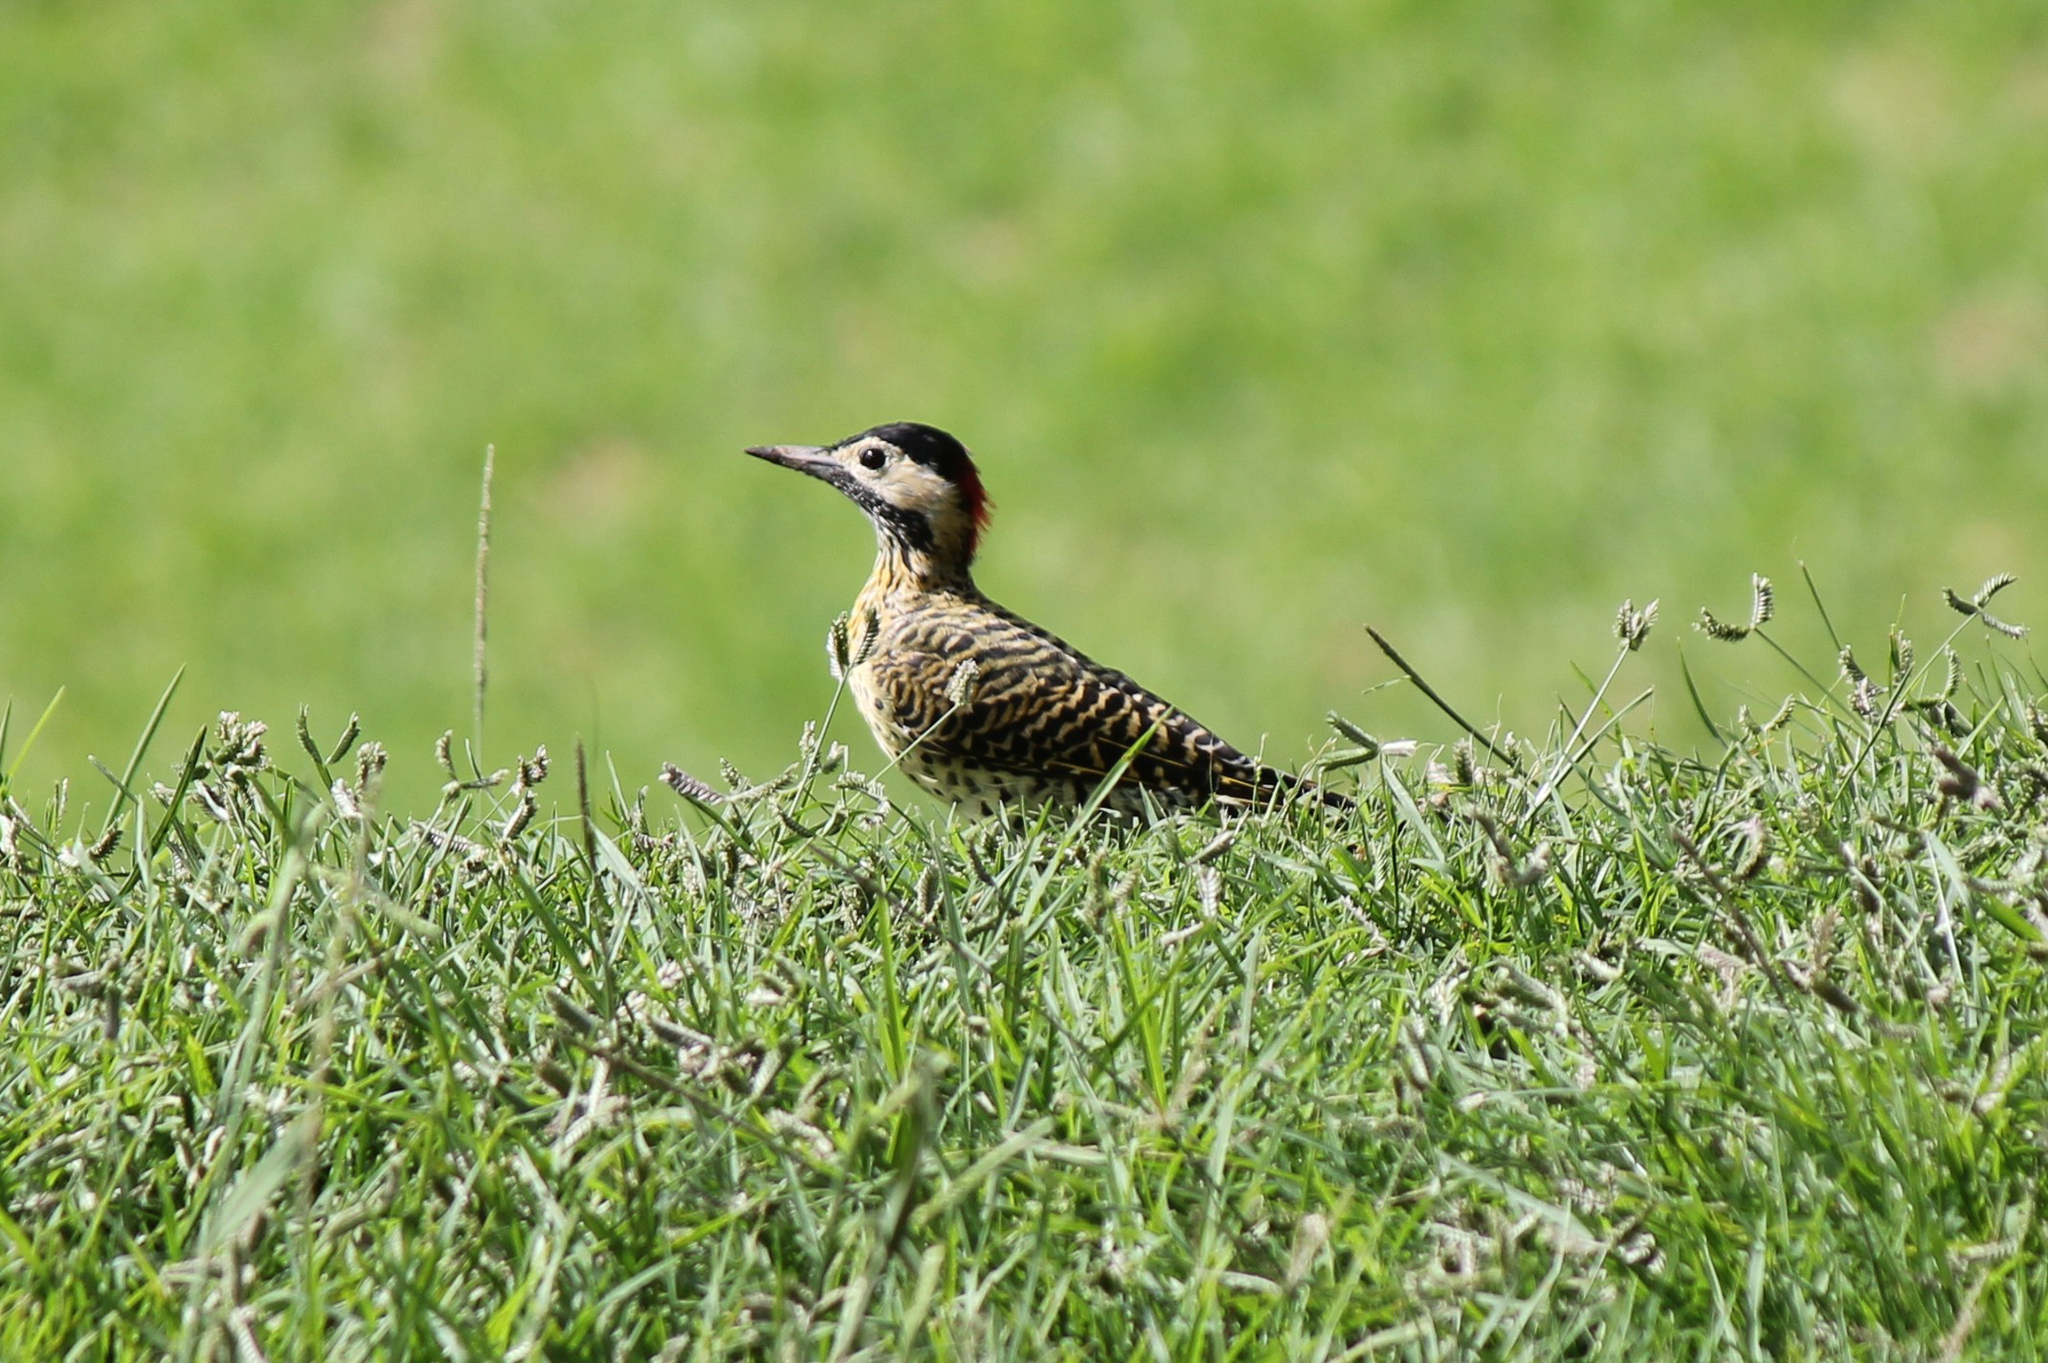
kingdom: Animalia
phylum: Chordata
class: Aves
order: Piciformes
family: Picidae
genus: Colaptes
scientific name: Colaptes melanochloros
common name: Green-barred woodpecker
